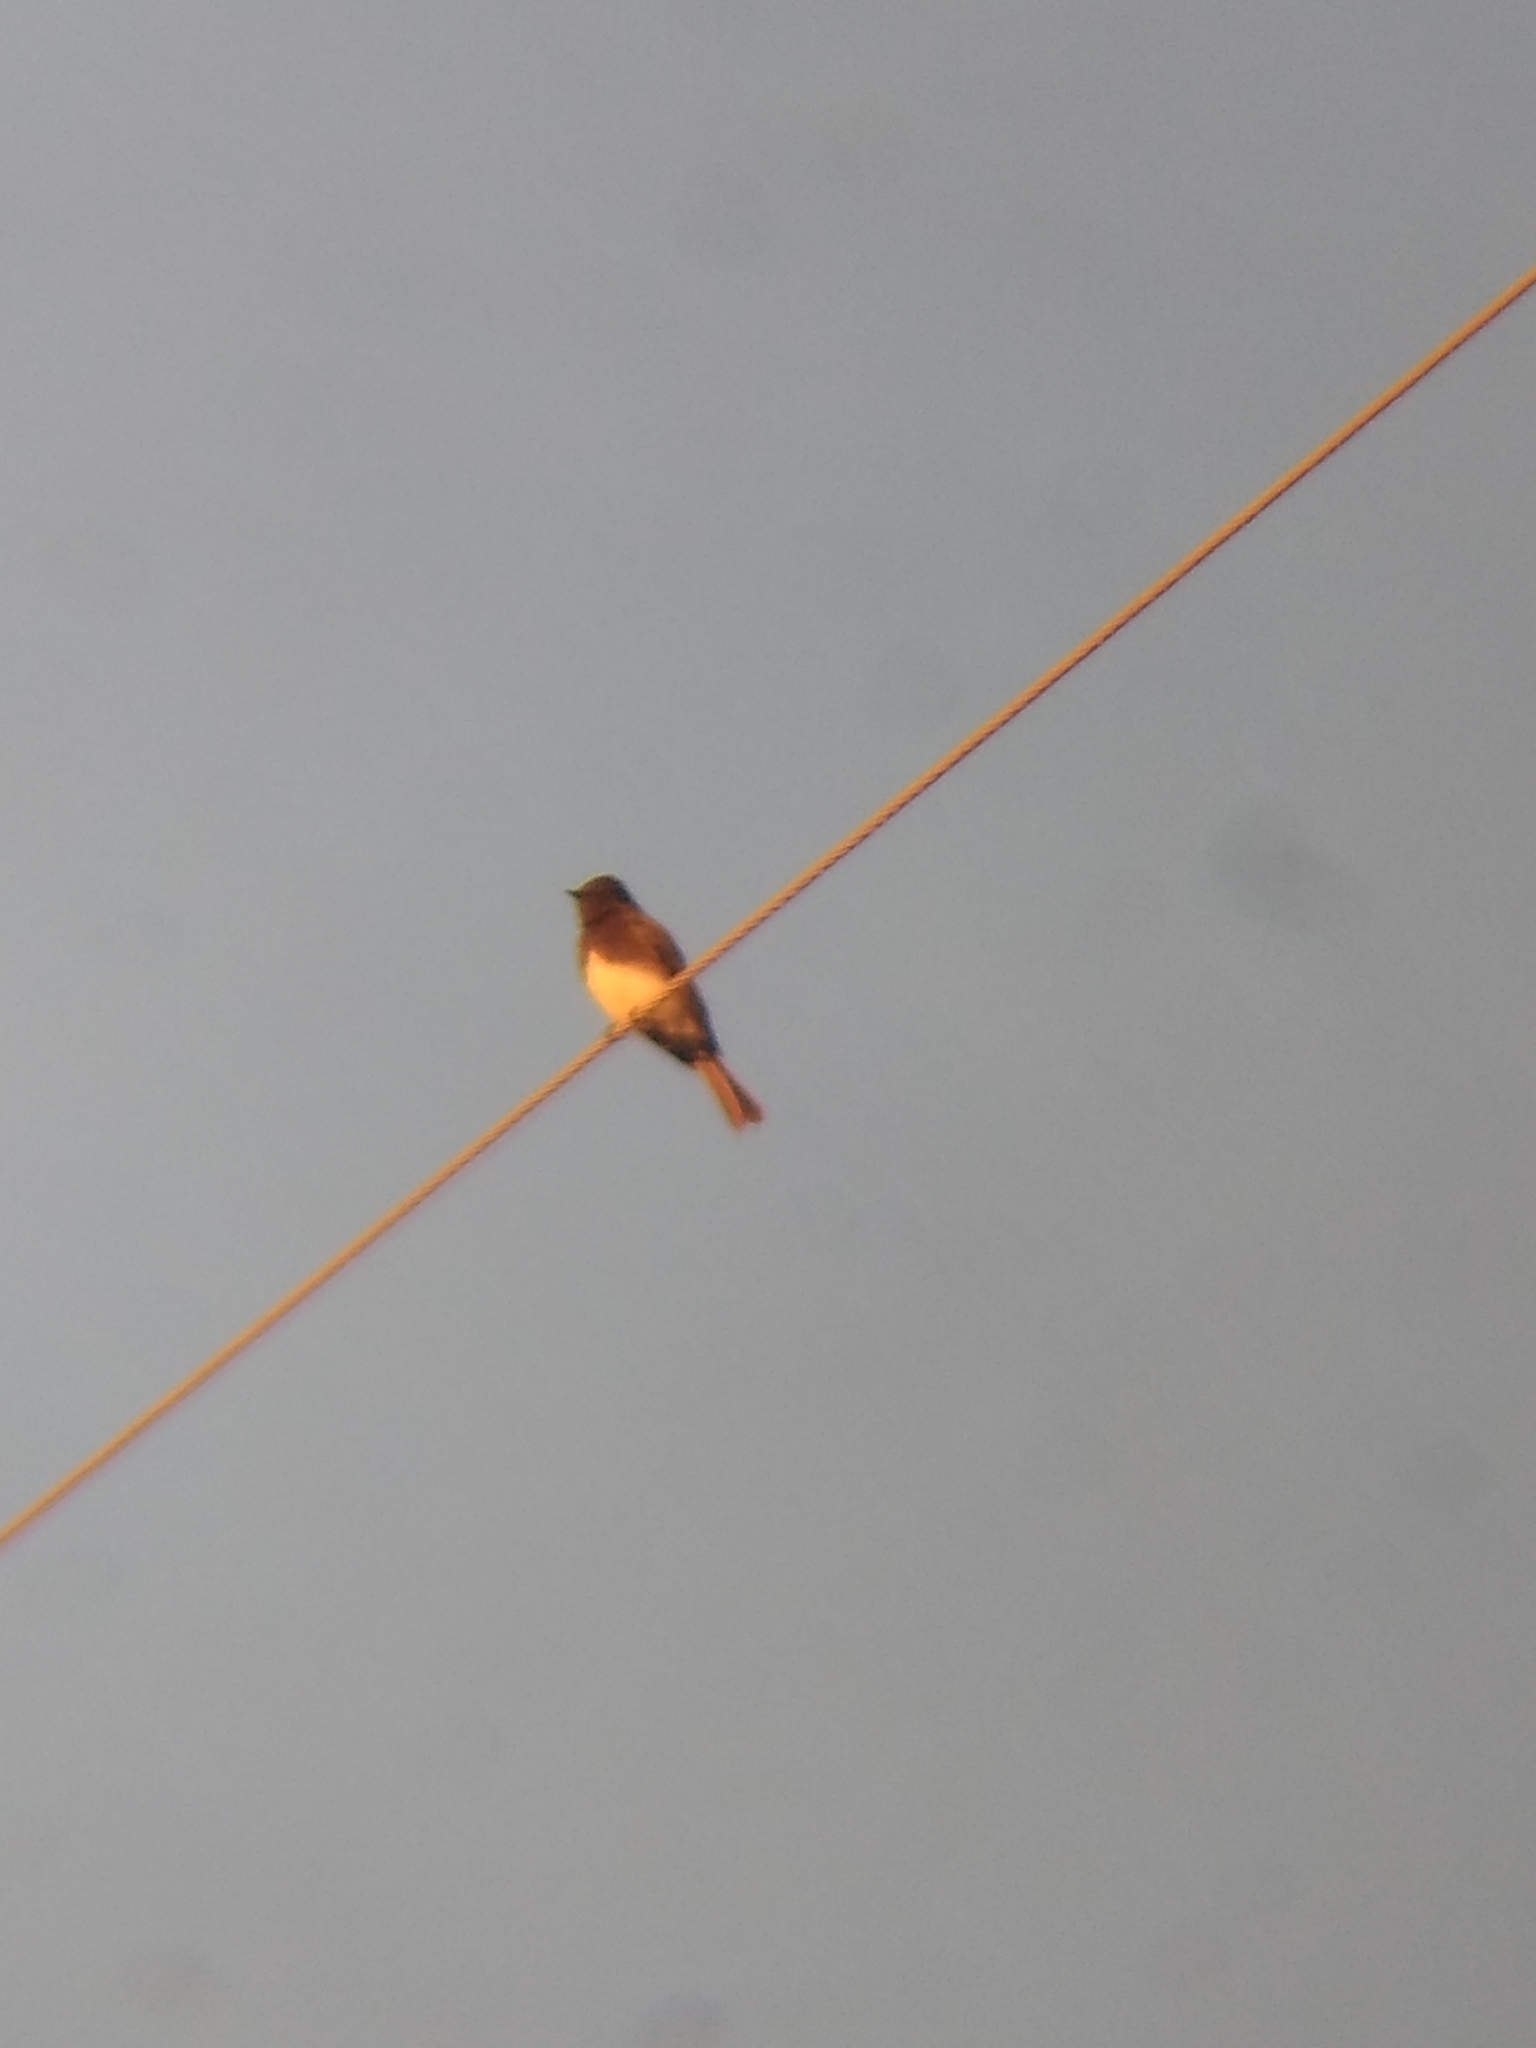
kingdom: Animalia
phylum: Chordata
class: Aves
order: Passeriformes
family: Tyrannidae
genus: Sayornis
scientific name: Sayornis nigricans
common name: Black phoebe
